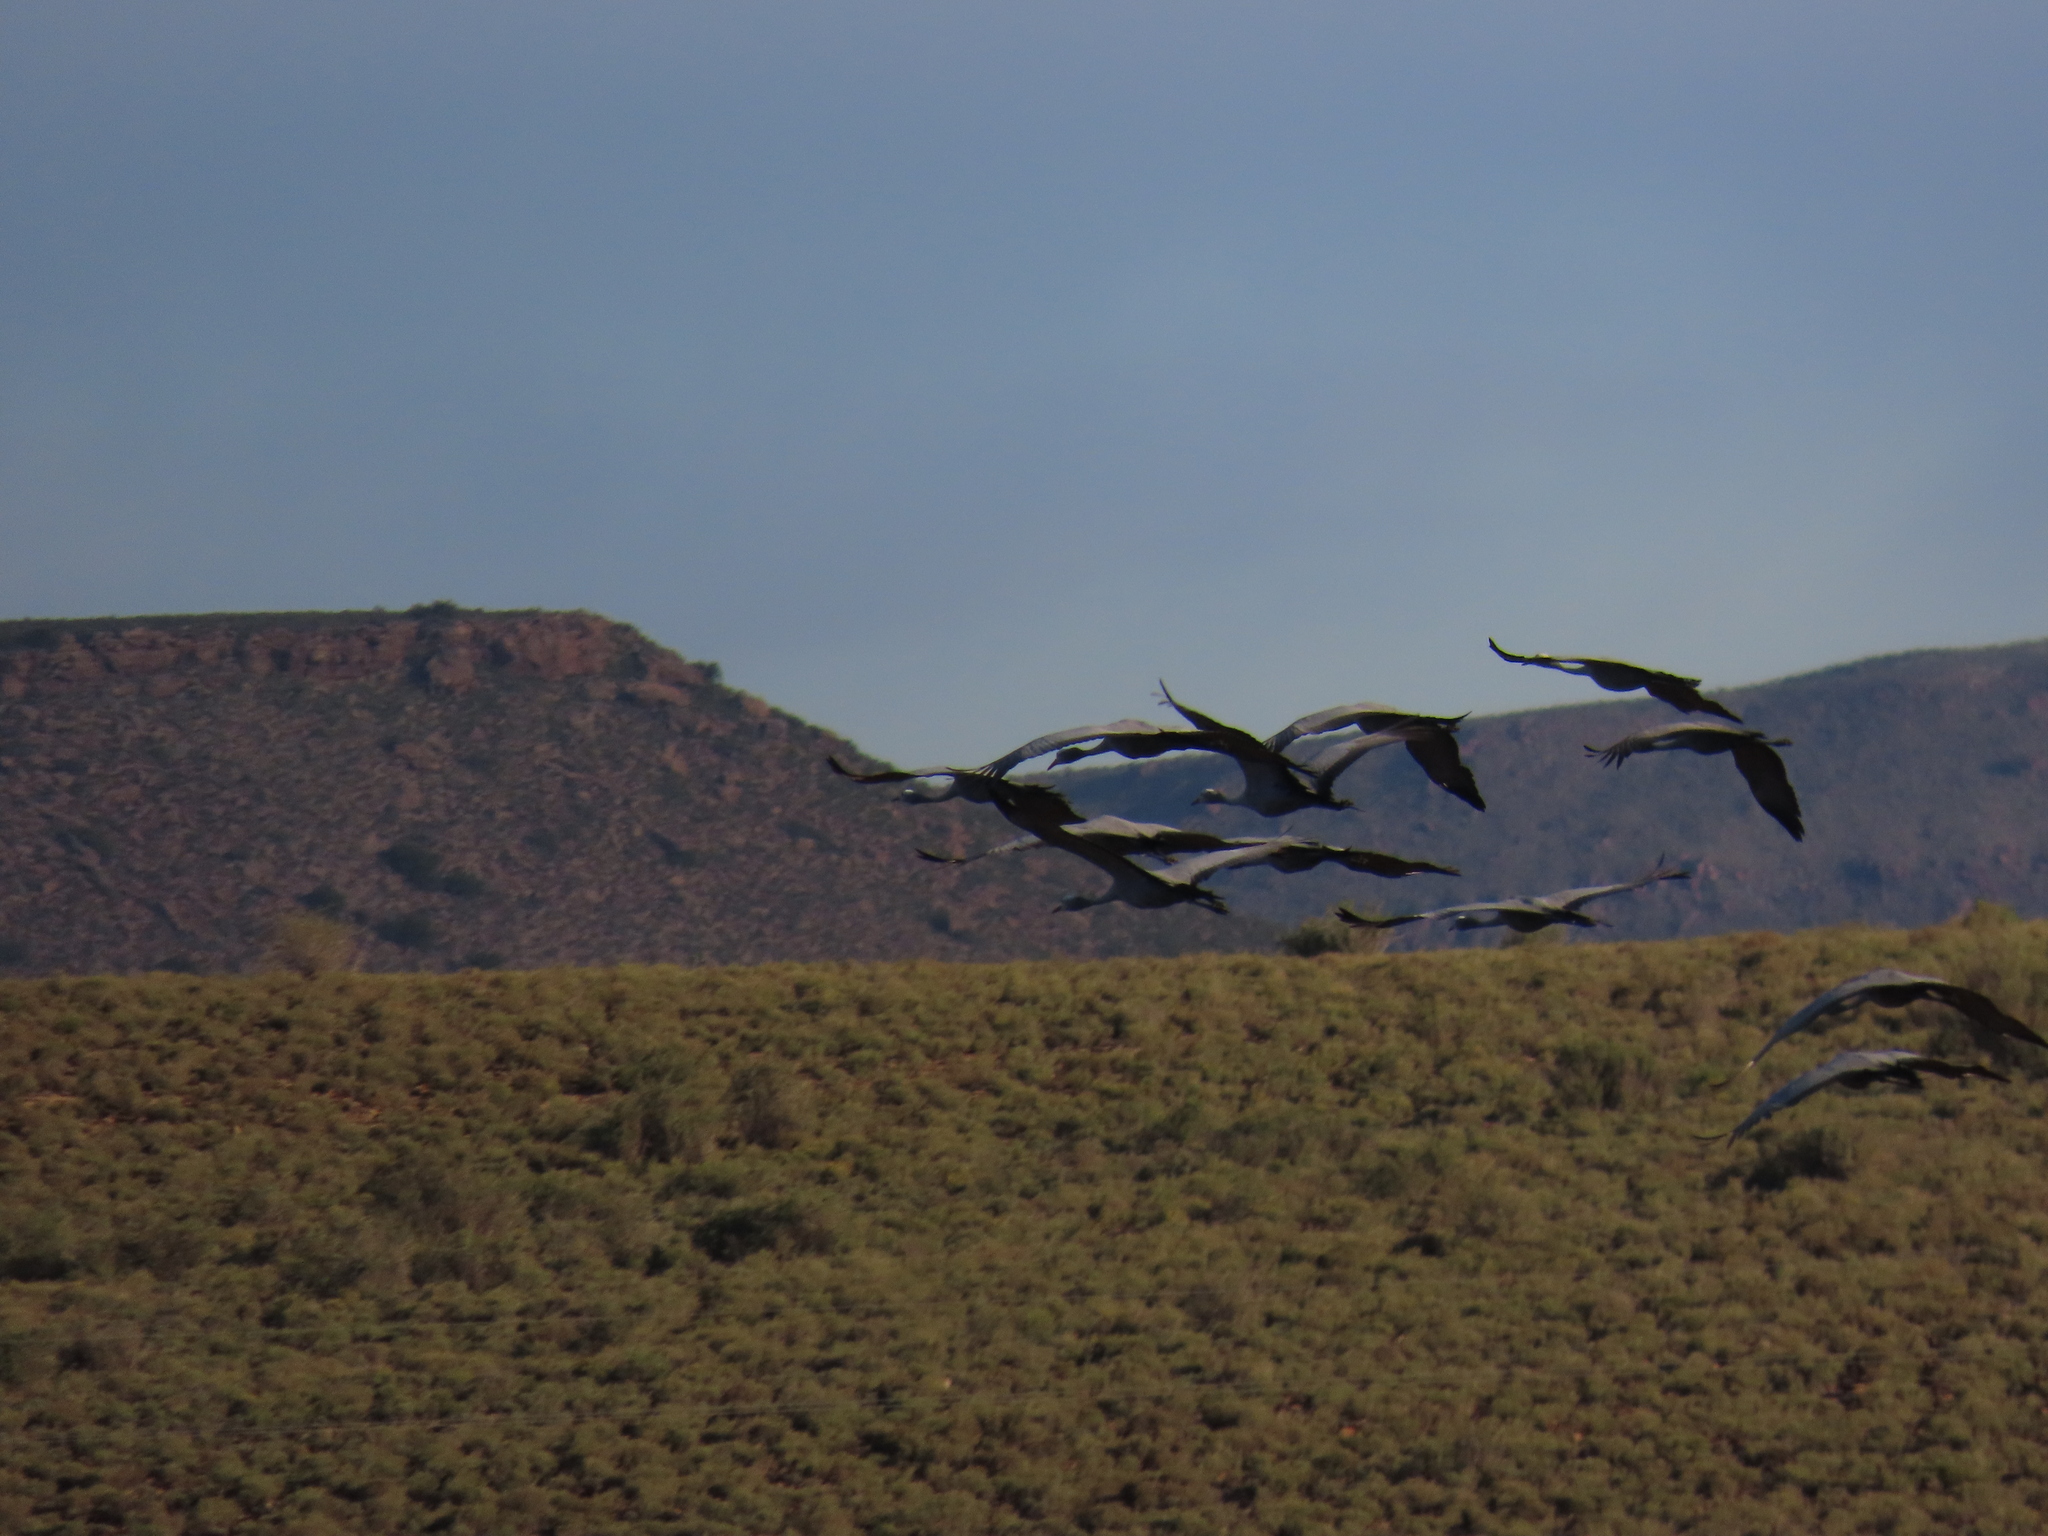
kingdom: Animalia
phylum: Chordata
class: Aves
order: Gruiformes
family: Gruidae
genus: Anthropoides
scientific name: Anthropoides paradiseus
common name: Blue crane
